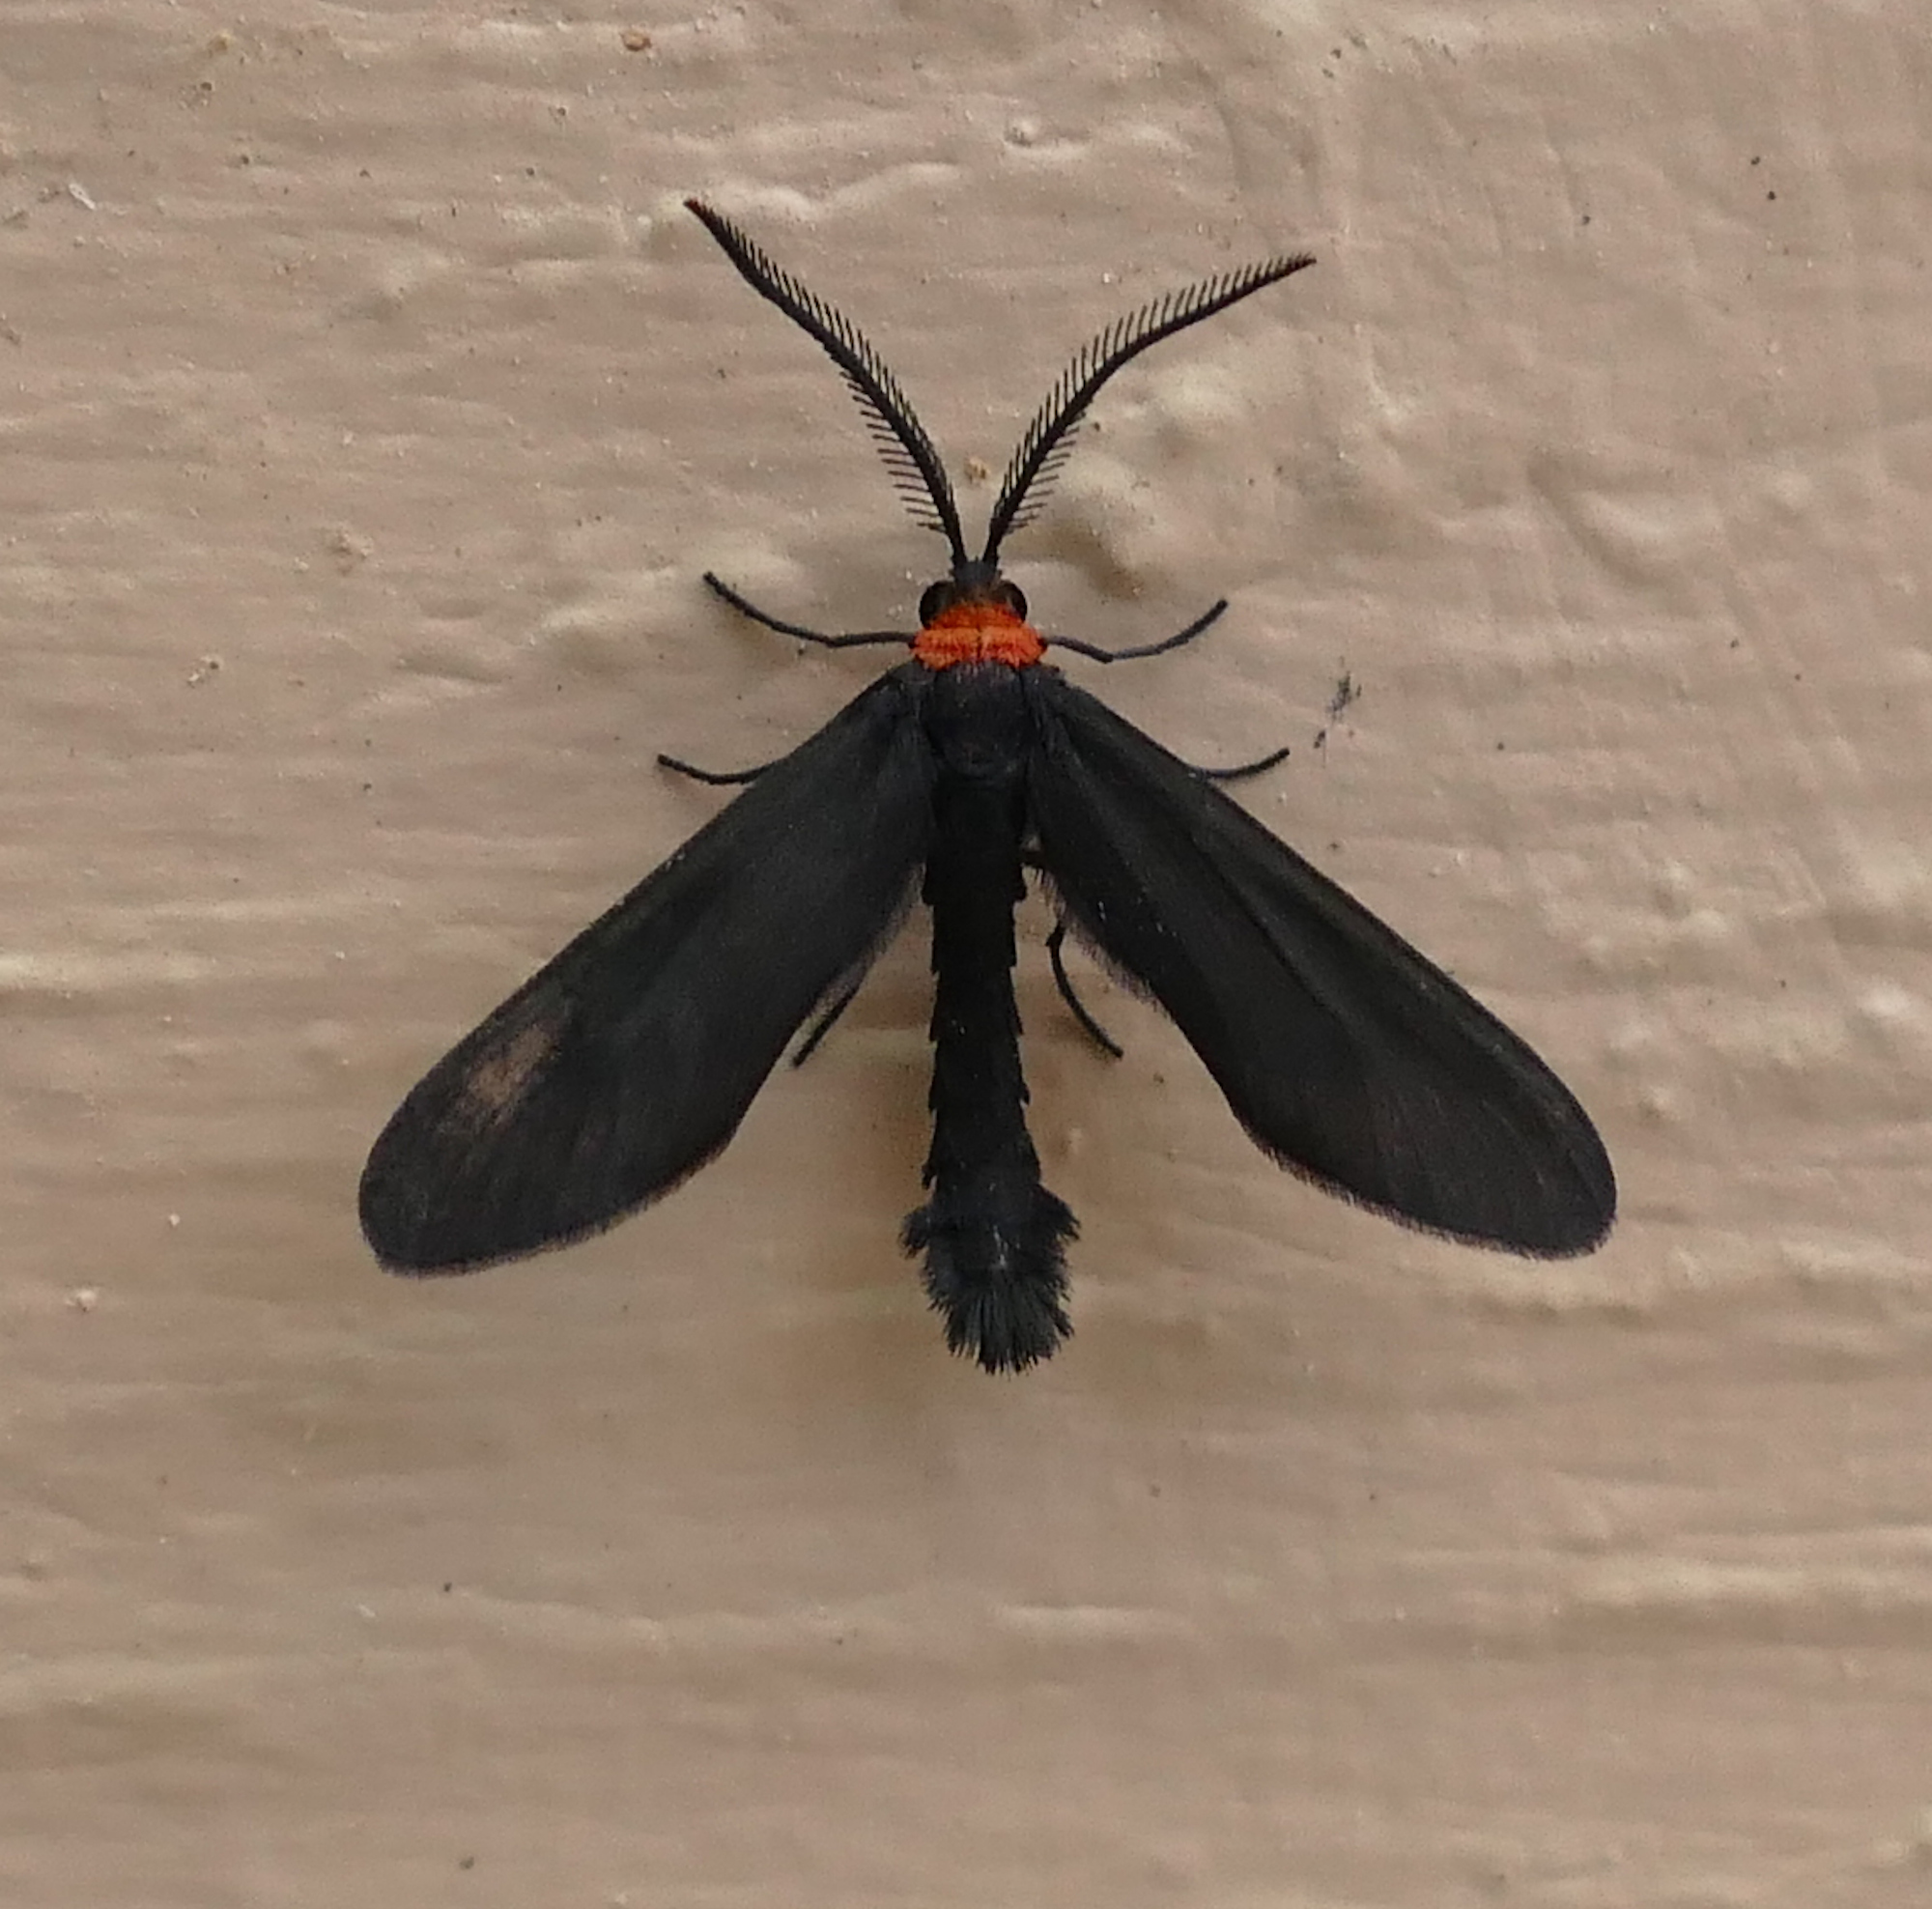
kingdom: Animalia
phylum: Arthropoda
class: Insecta
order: Lepidoptera
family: Zygaenidae
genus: Harrisina
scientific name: Harrisina americana
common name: Grapeleaf skeletonizer moth
